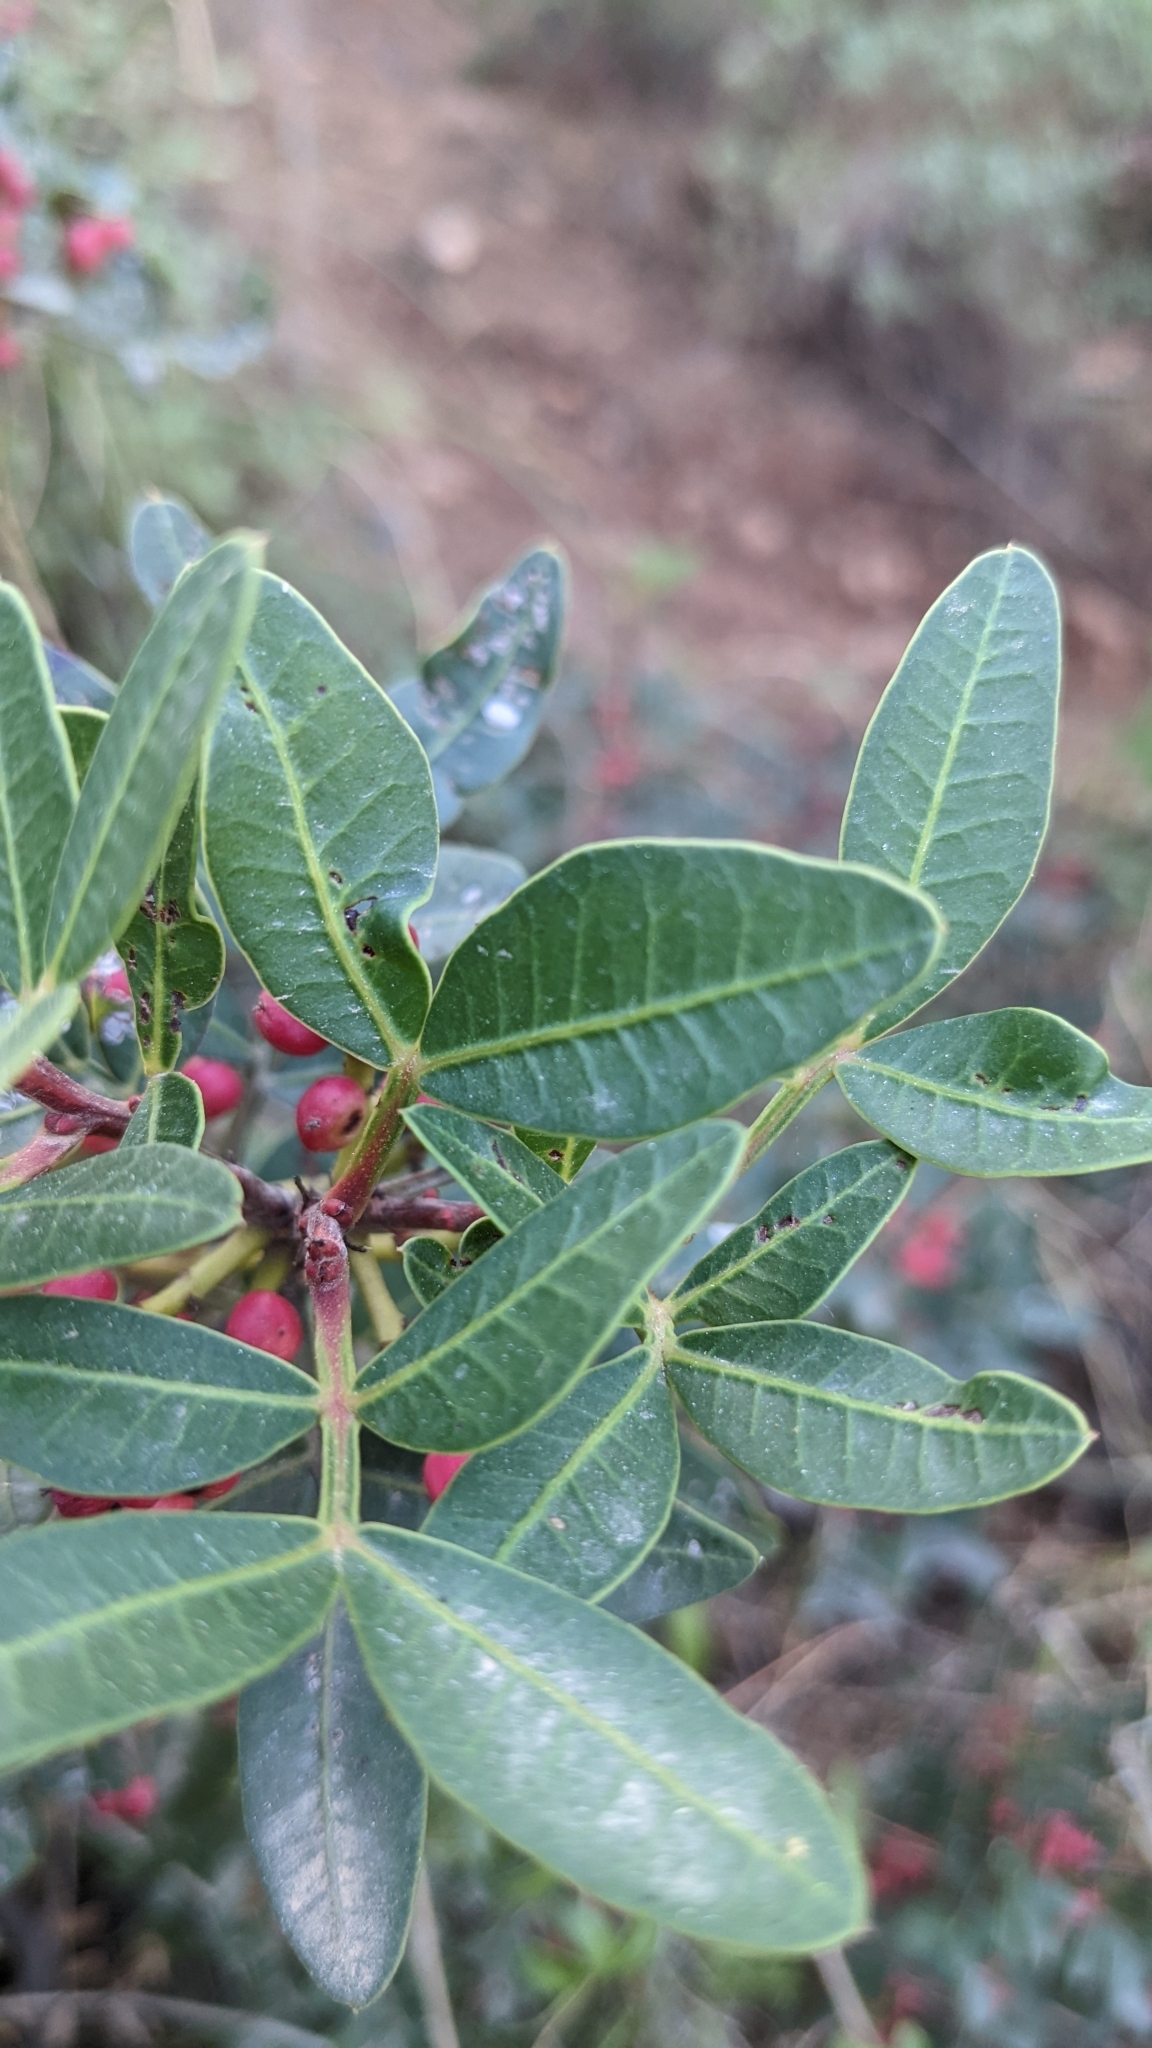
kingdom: Plantae
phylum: Tracheophyta
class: Magnoliopsida
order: Sapindales
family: Anacardiaceae
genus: Pistacia
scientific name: Pistacia lentiscus
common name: Lentisk
